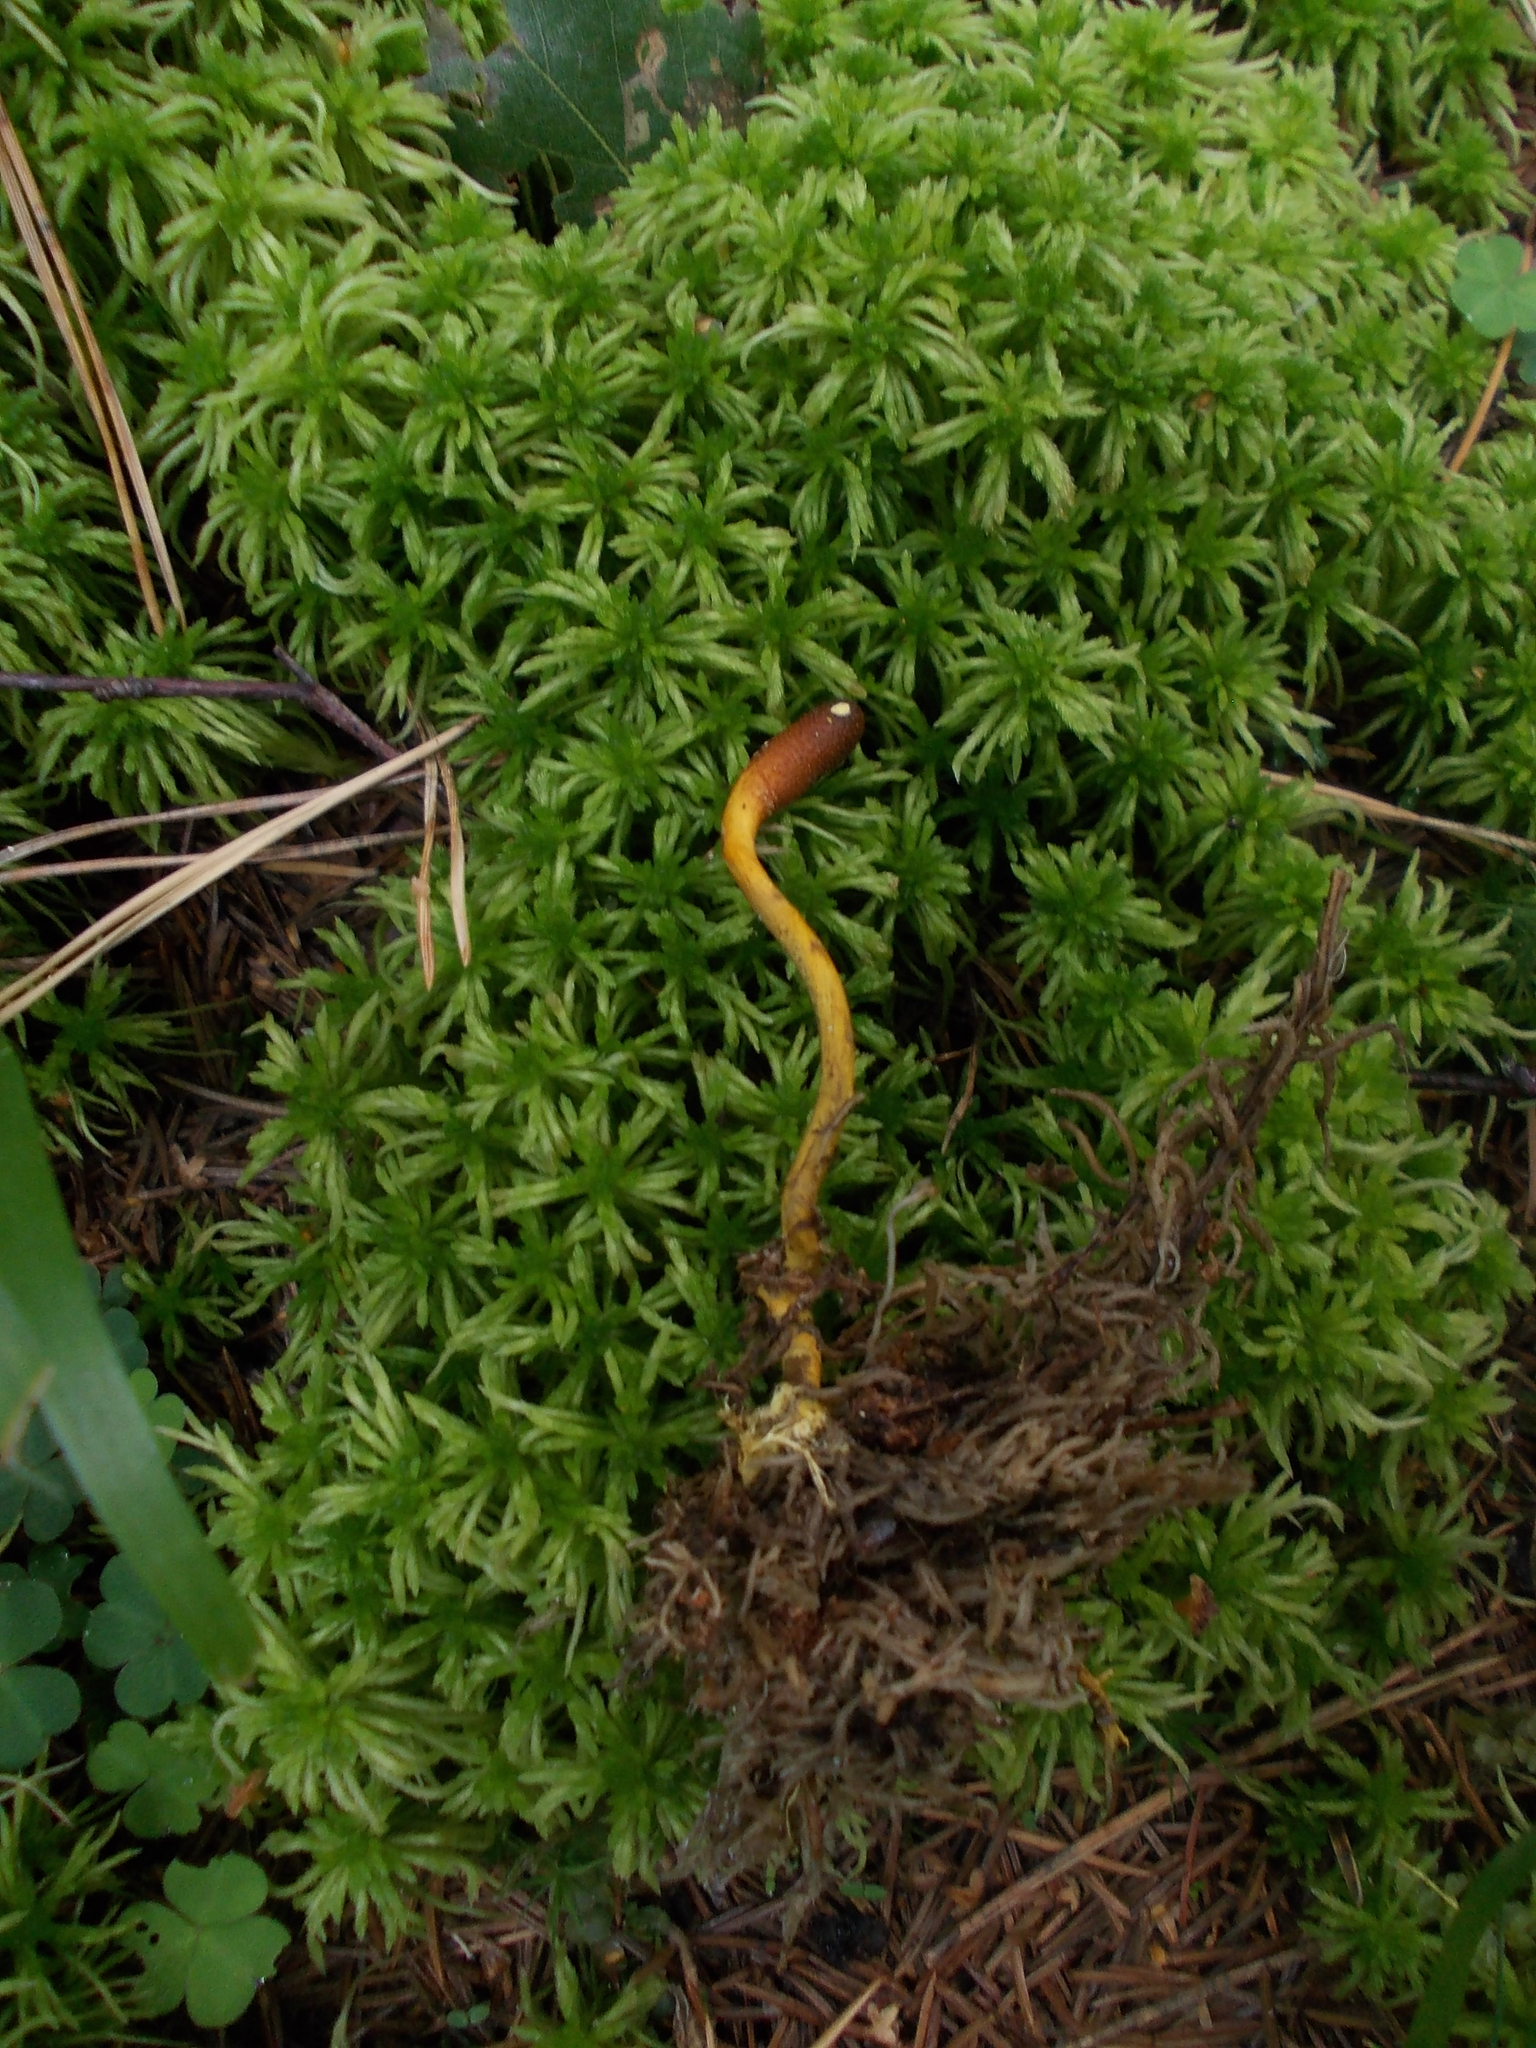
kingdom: Fungi
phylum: Ascomycota
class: Sordariomycetes
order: Hypocreales
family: Ophiocordycipitaceae
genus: Tolypocladium
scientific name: Tolypocladium ophioglossoides
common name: Snaketongue truffleclub
